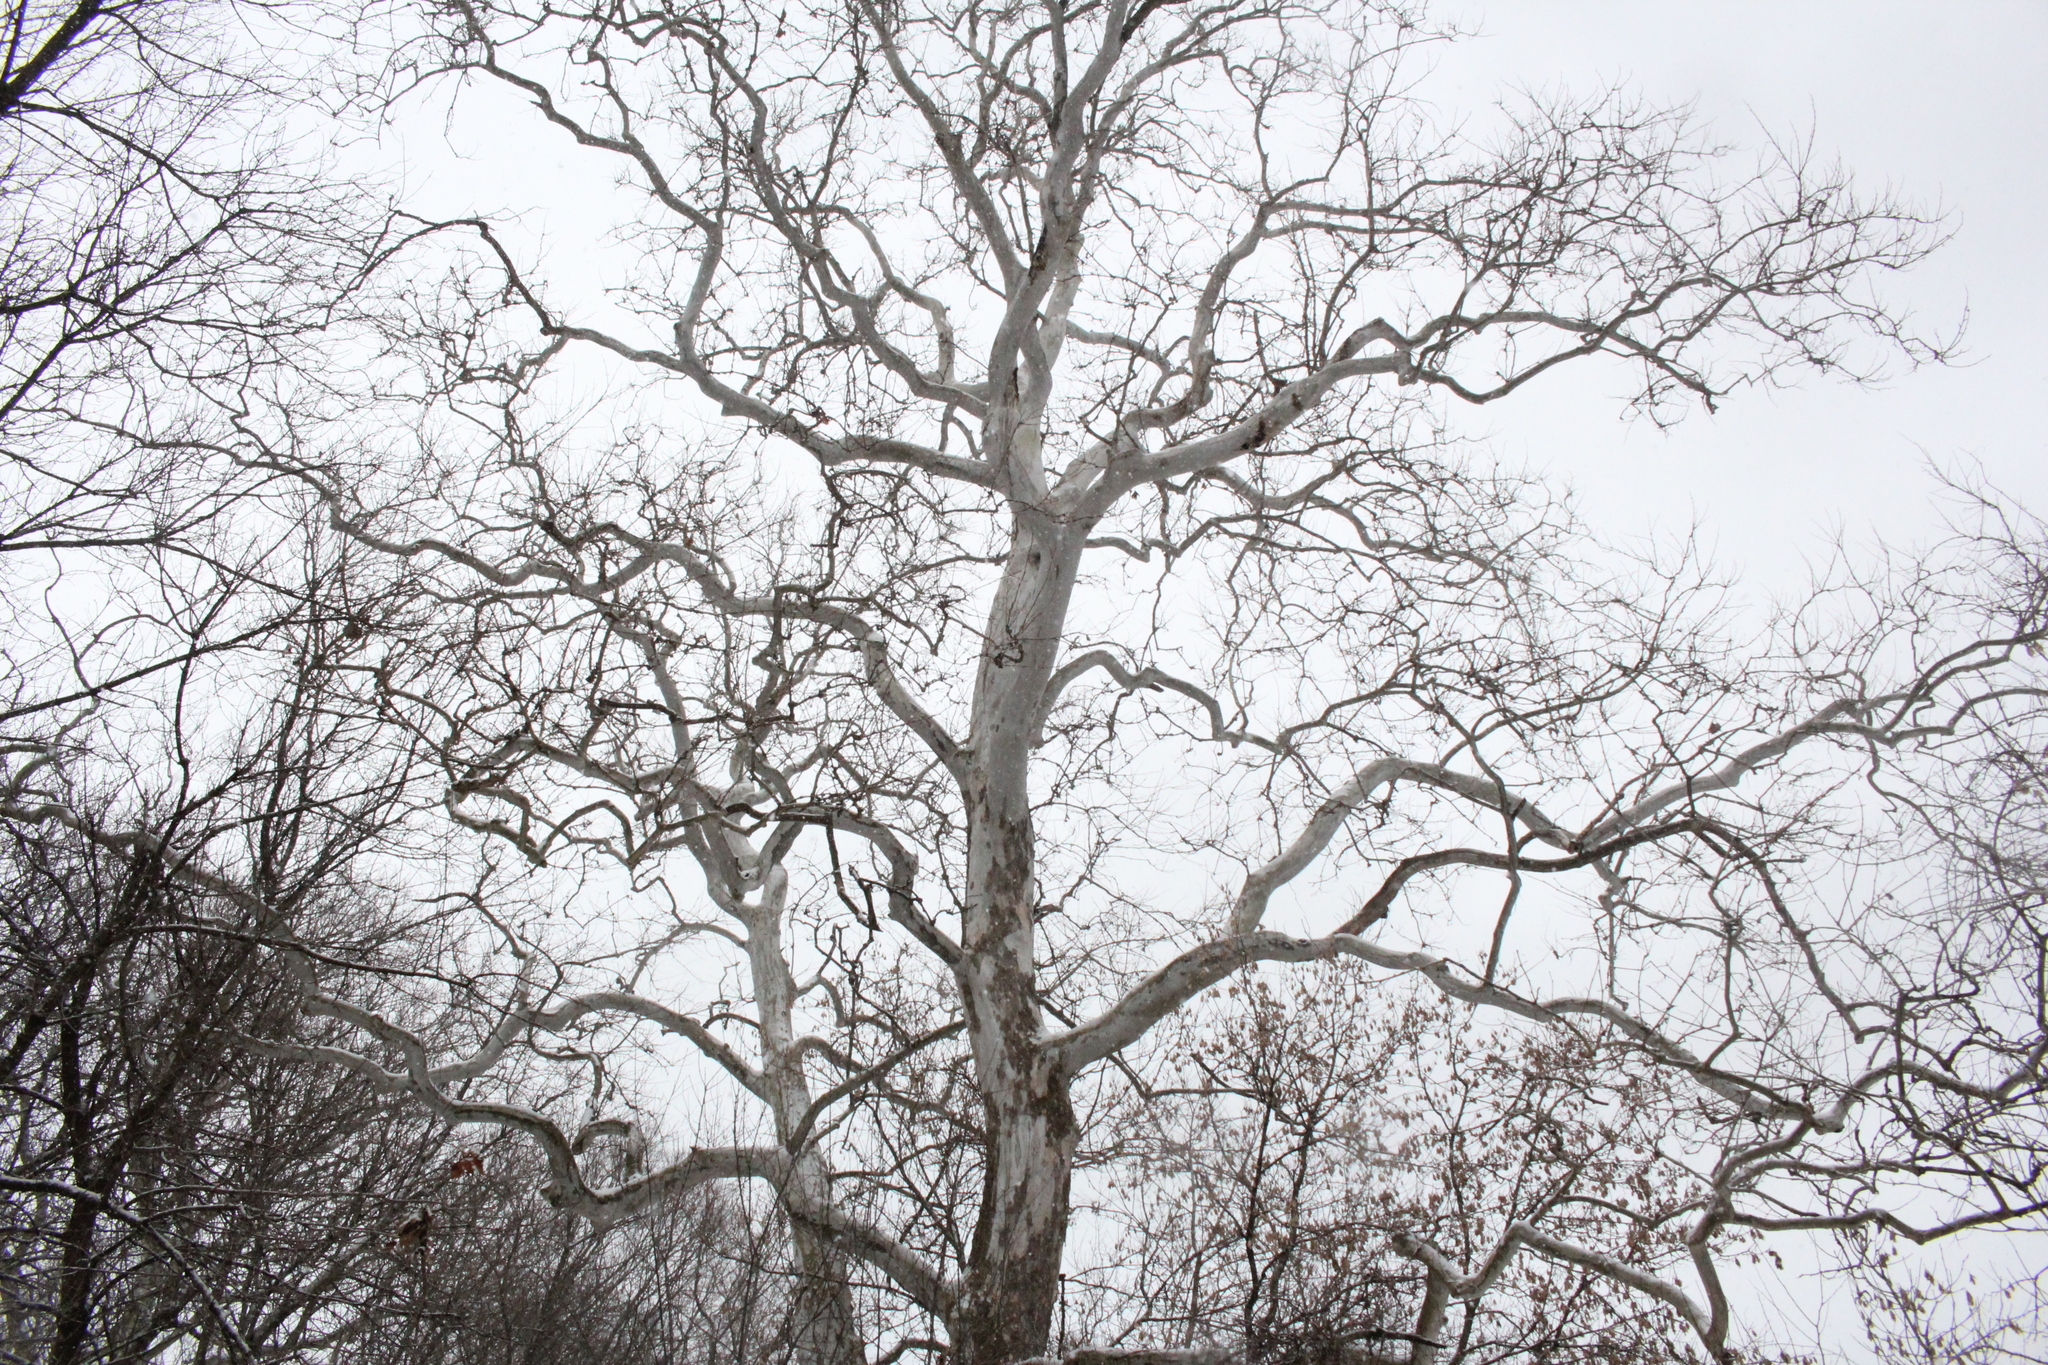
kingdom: Plantae
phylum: Tracheophyta
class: Magnoliopsida
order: Proteales
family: Platanaceae
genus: Platanus
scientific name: Platanus occidentalis
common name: American sycamore
